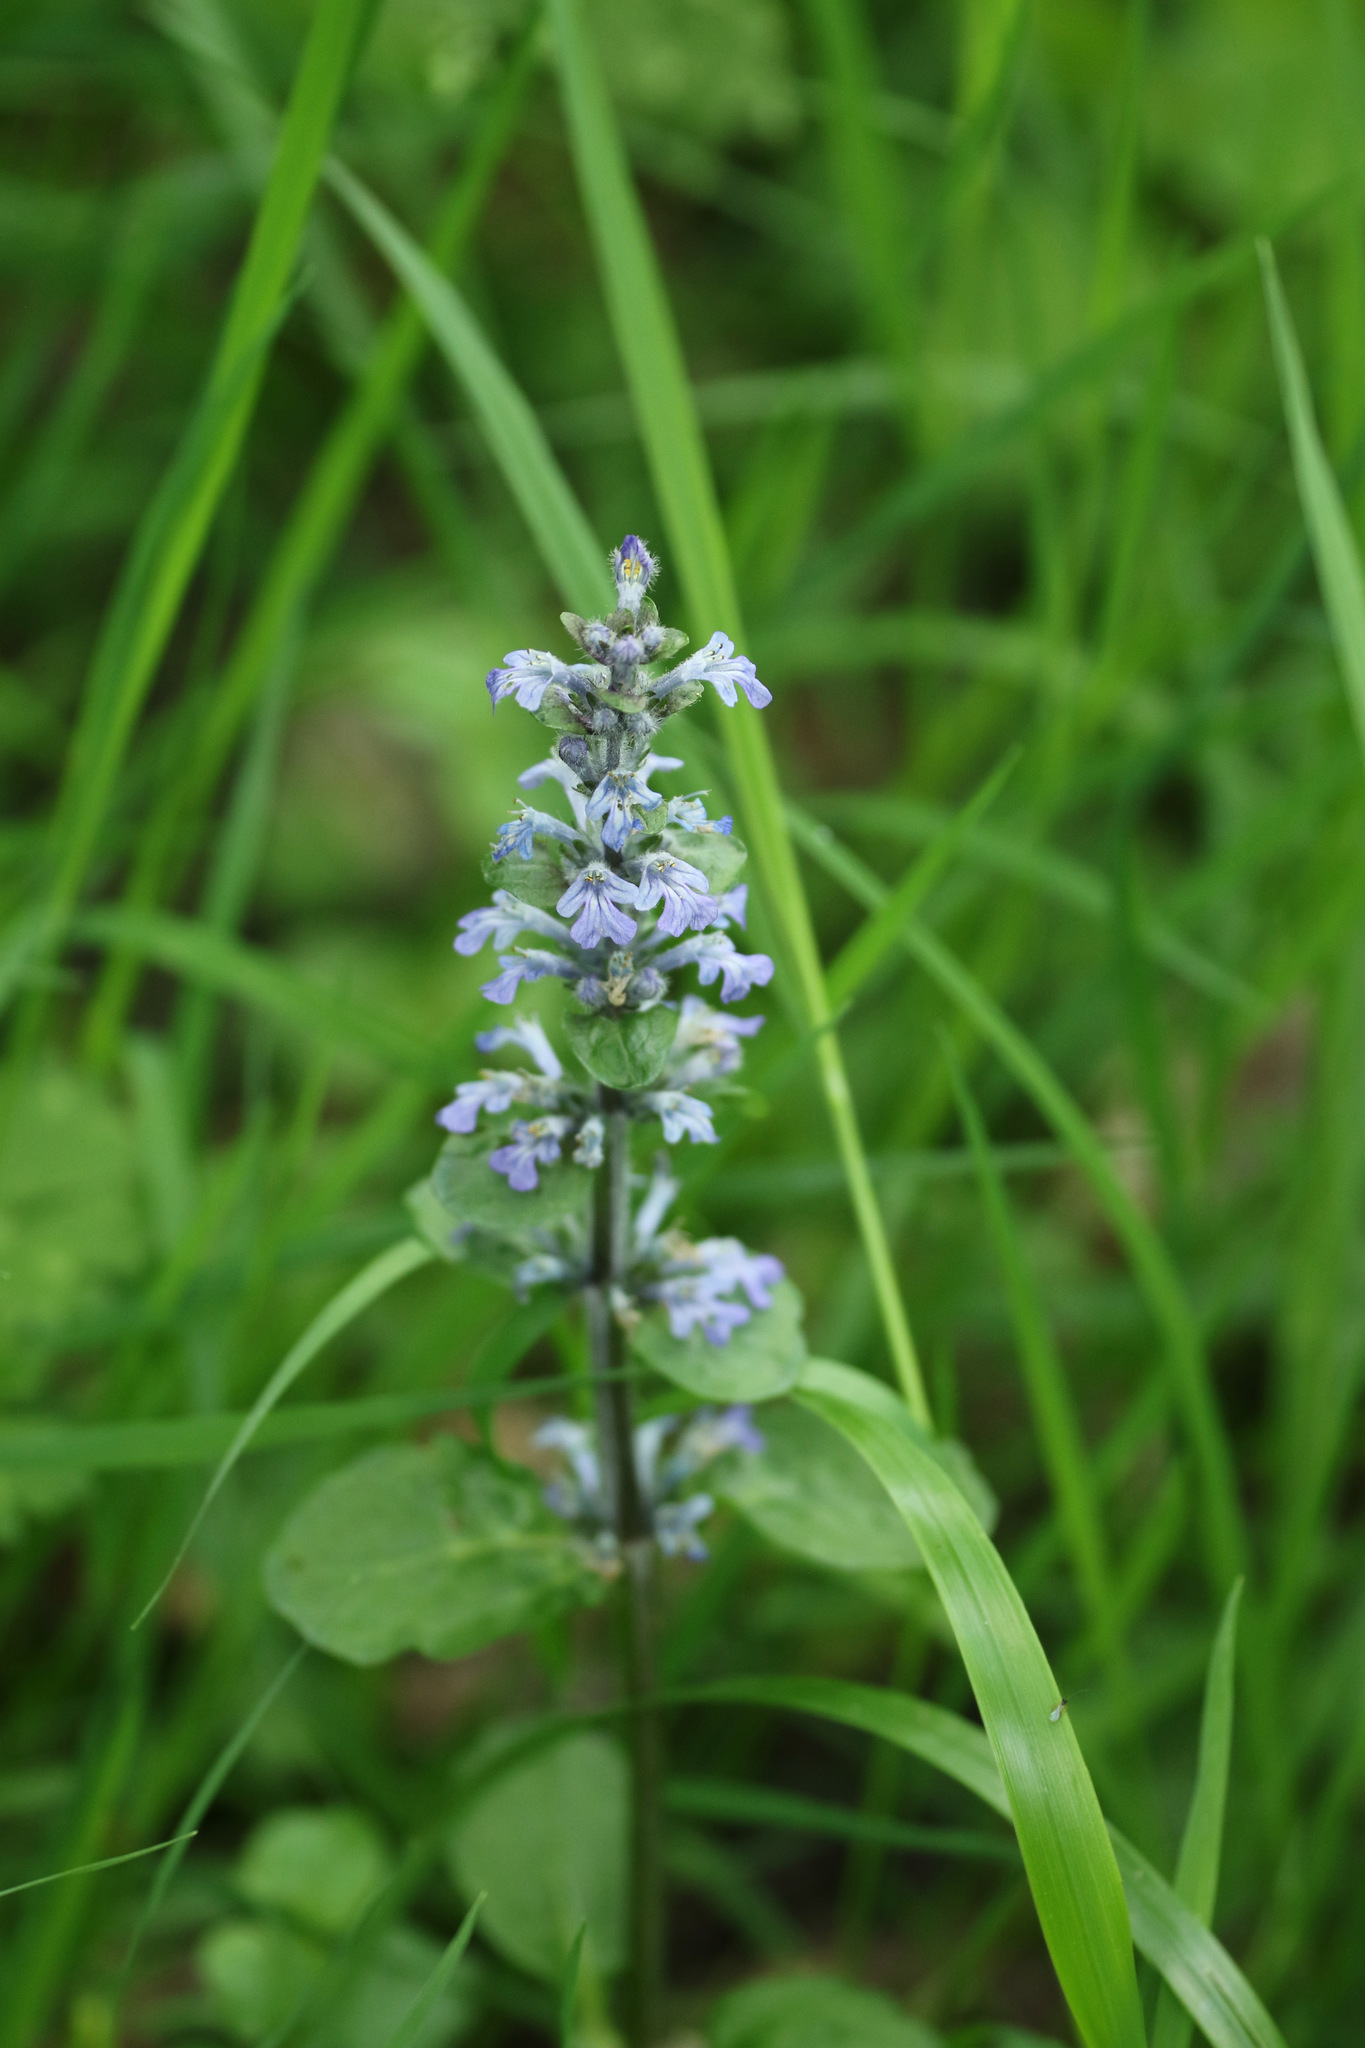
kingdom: Plantae
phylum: Tracheophyta
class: Magnoliopsida
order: Lamiales
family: Lamiaceae
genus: Ajuga
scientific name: Ajuga reptans
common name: Bugle
